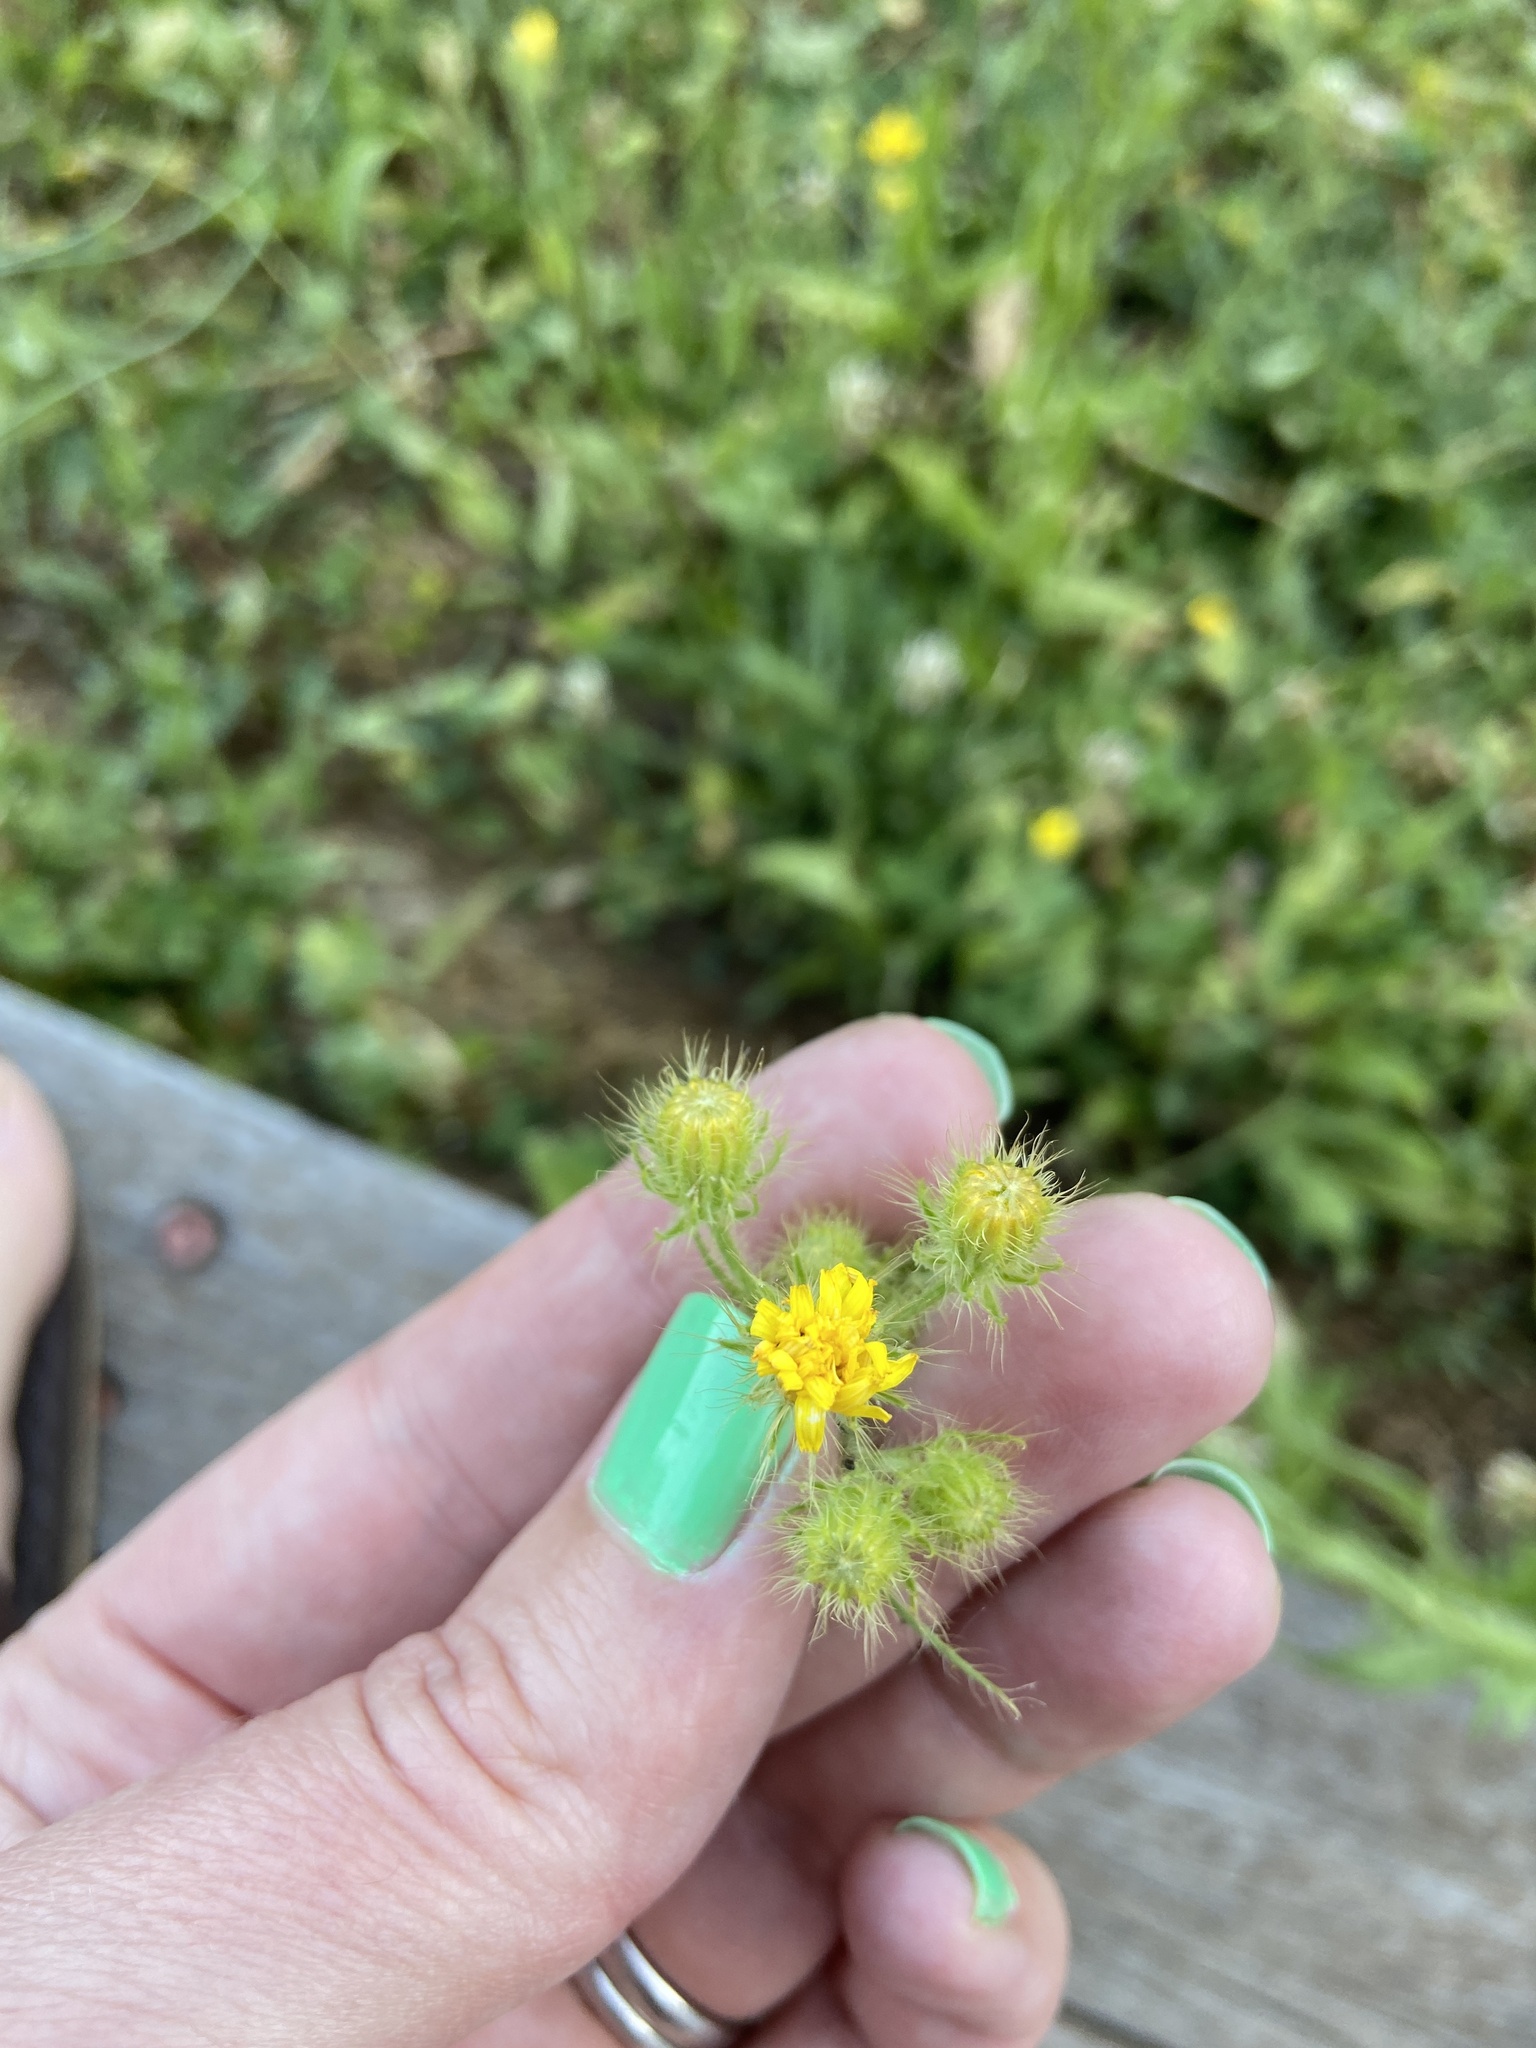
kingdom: Plantae
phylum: Tracheophyta
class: Magnoliopsida
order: Asterales
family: Asteraceae
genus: Crepis
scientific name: Crepis setosa
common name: Bristly hawk's-beard
